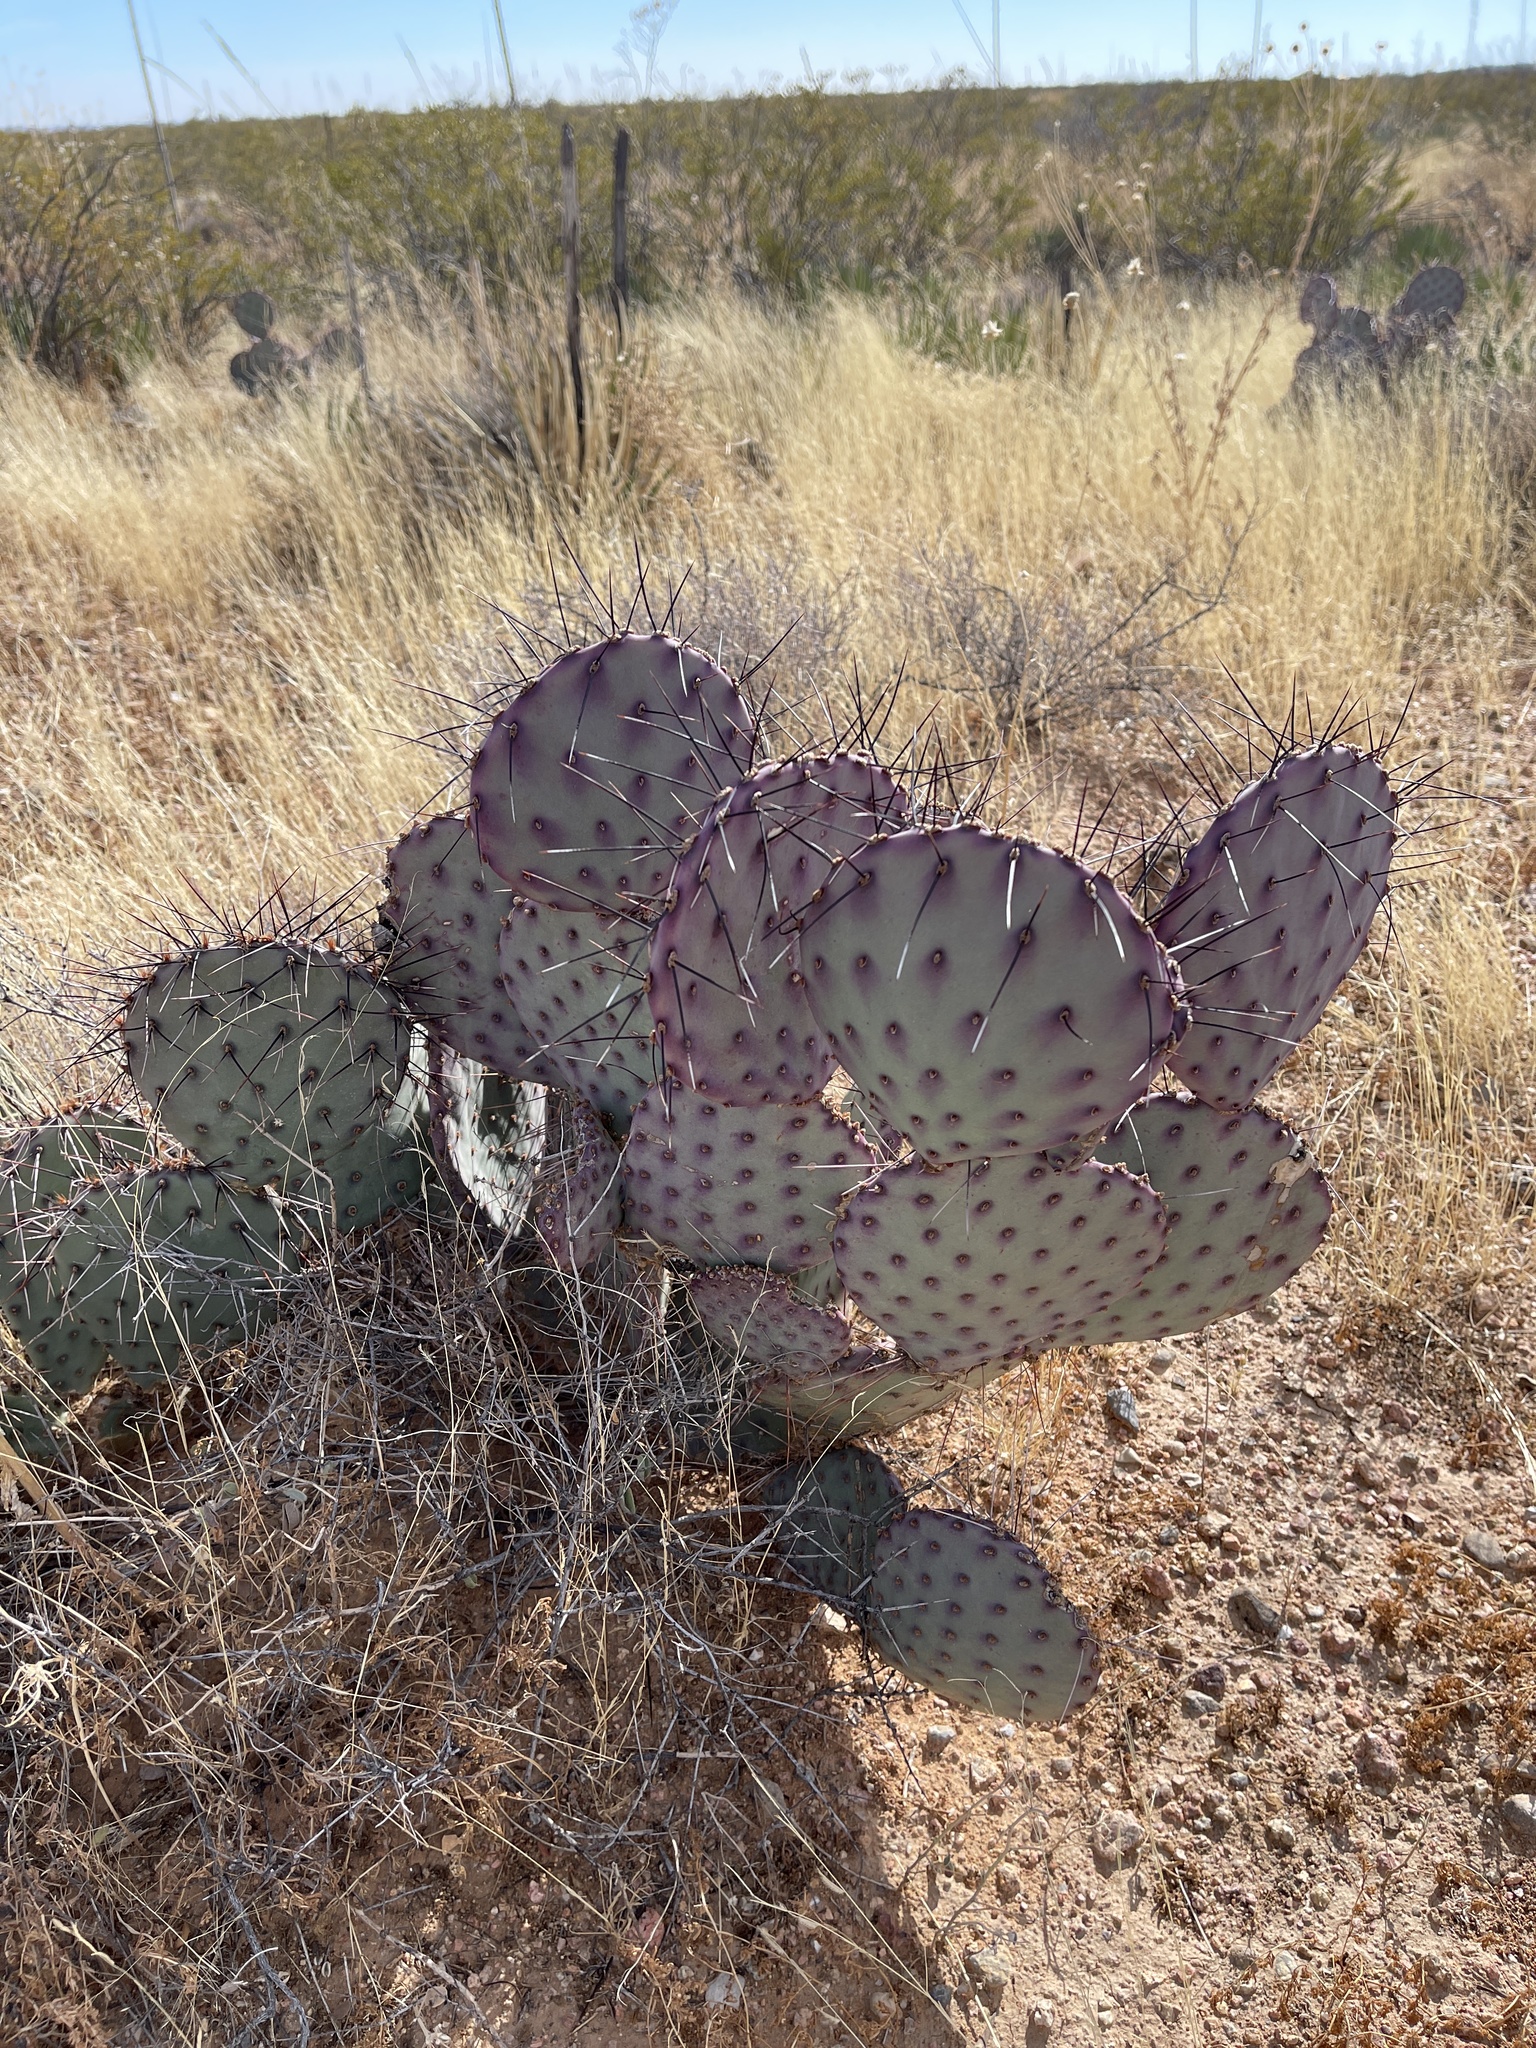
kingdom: Plantae
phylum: Tracheophyta
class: Magnoliopsida
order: Caryophyllales
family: Cactaceae
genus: Opuntia
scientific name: Opuntia macrocentra
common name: Purple prickly-pear
